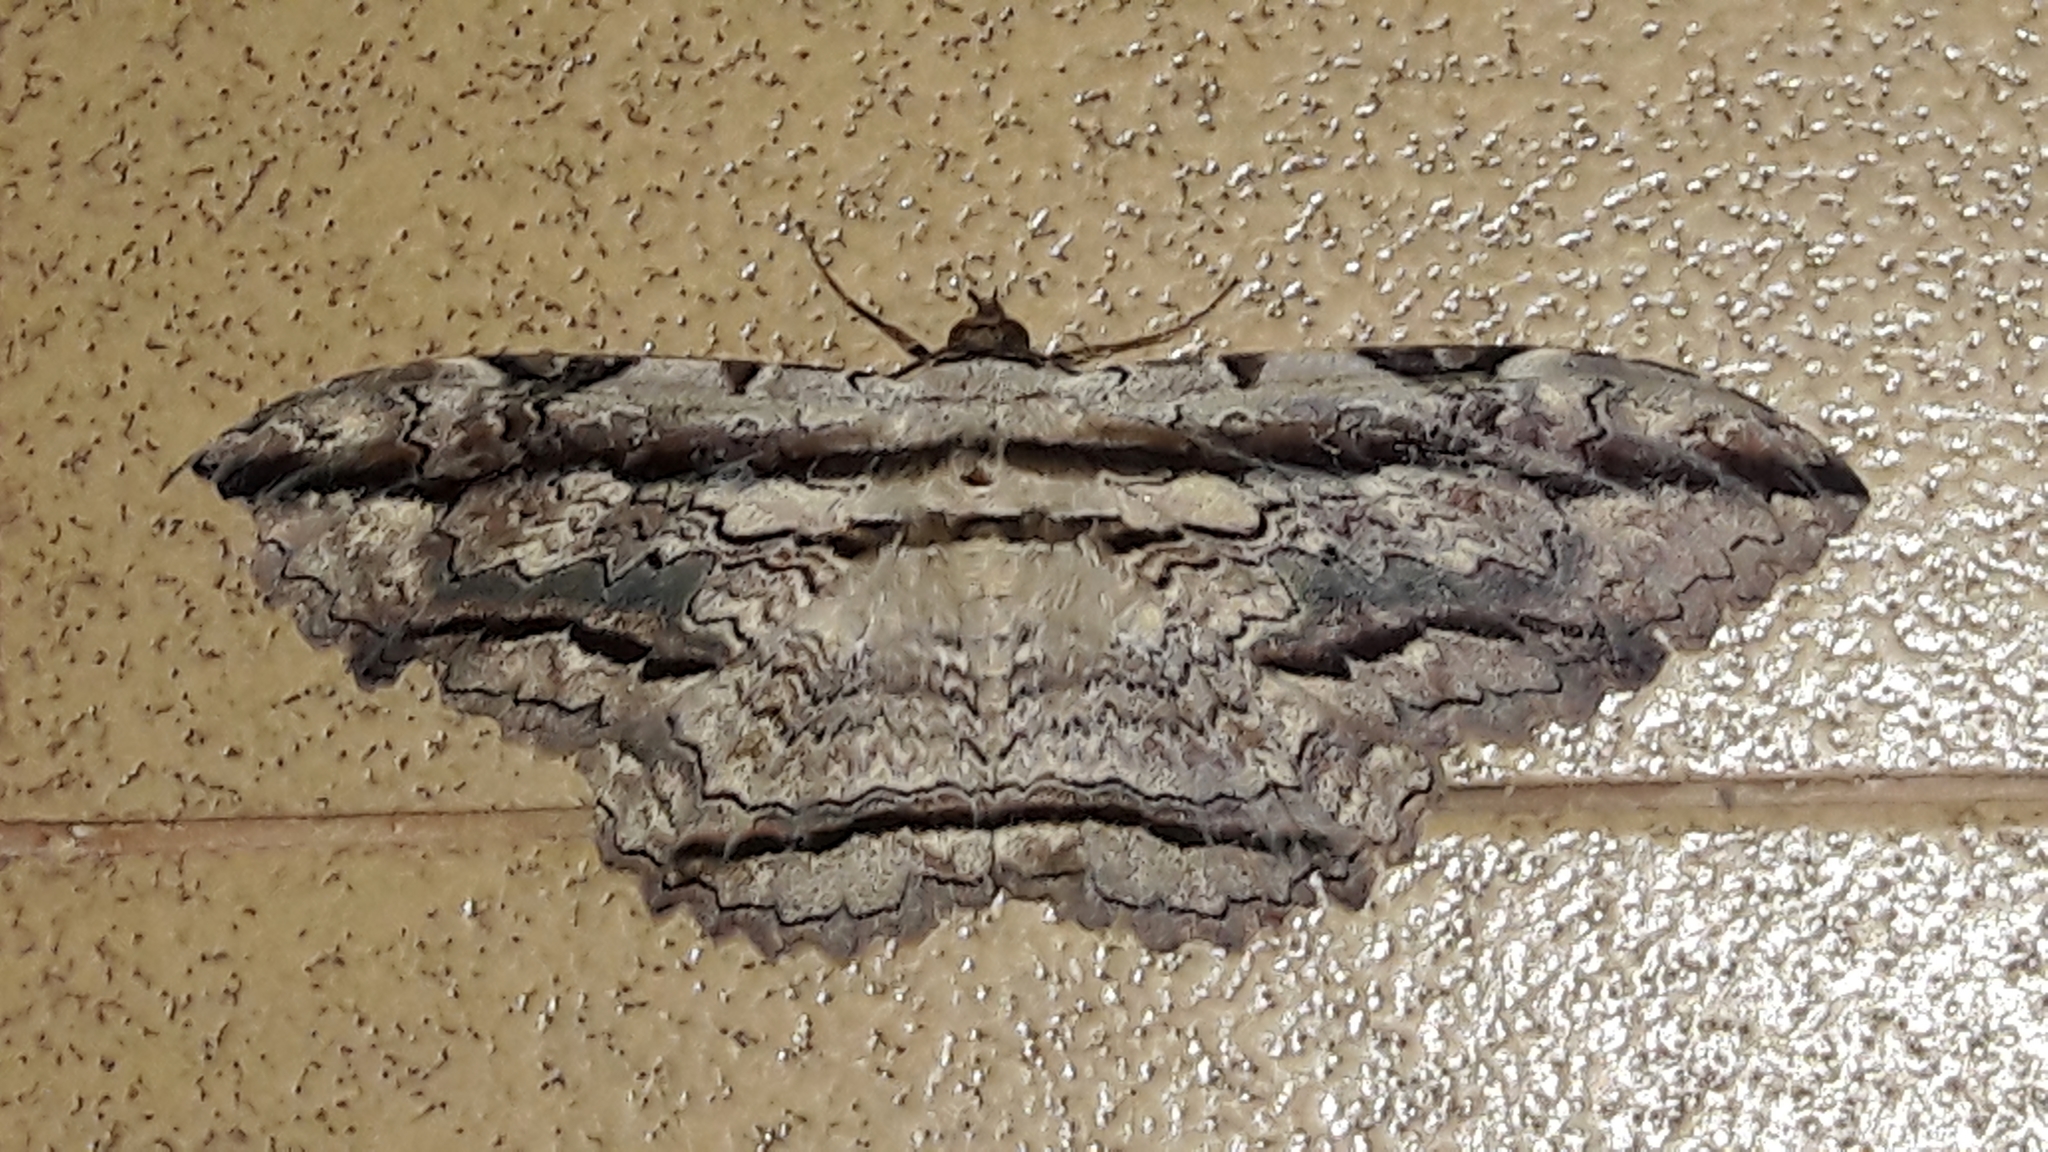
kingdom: Animalia
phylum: Arthropoda
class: Insecta
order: Lepidoptera
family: Erebidae
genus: Thysania
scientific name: Thysania zenobia
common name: Owl moth
